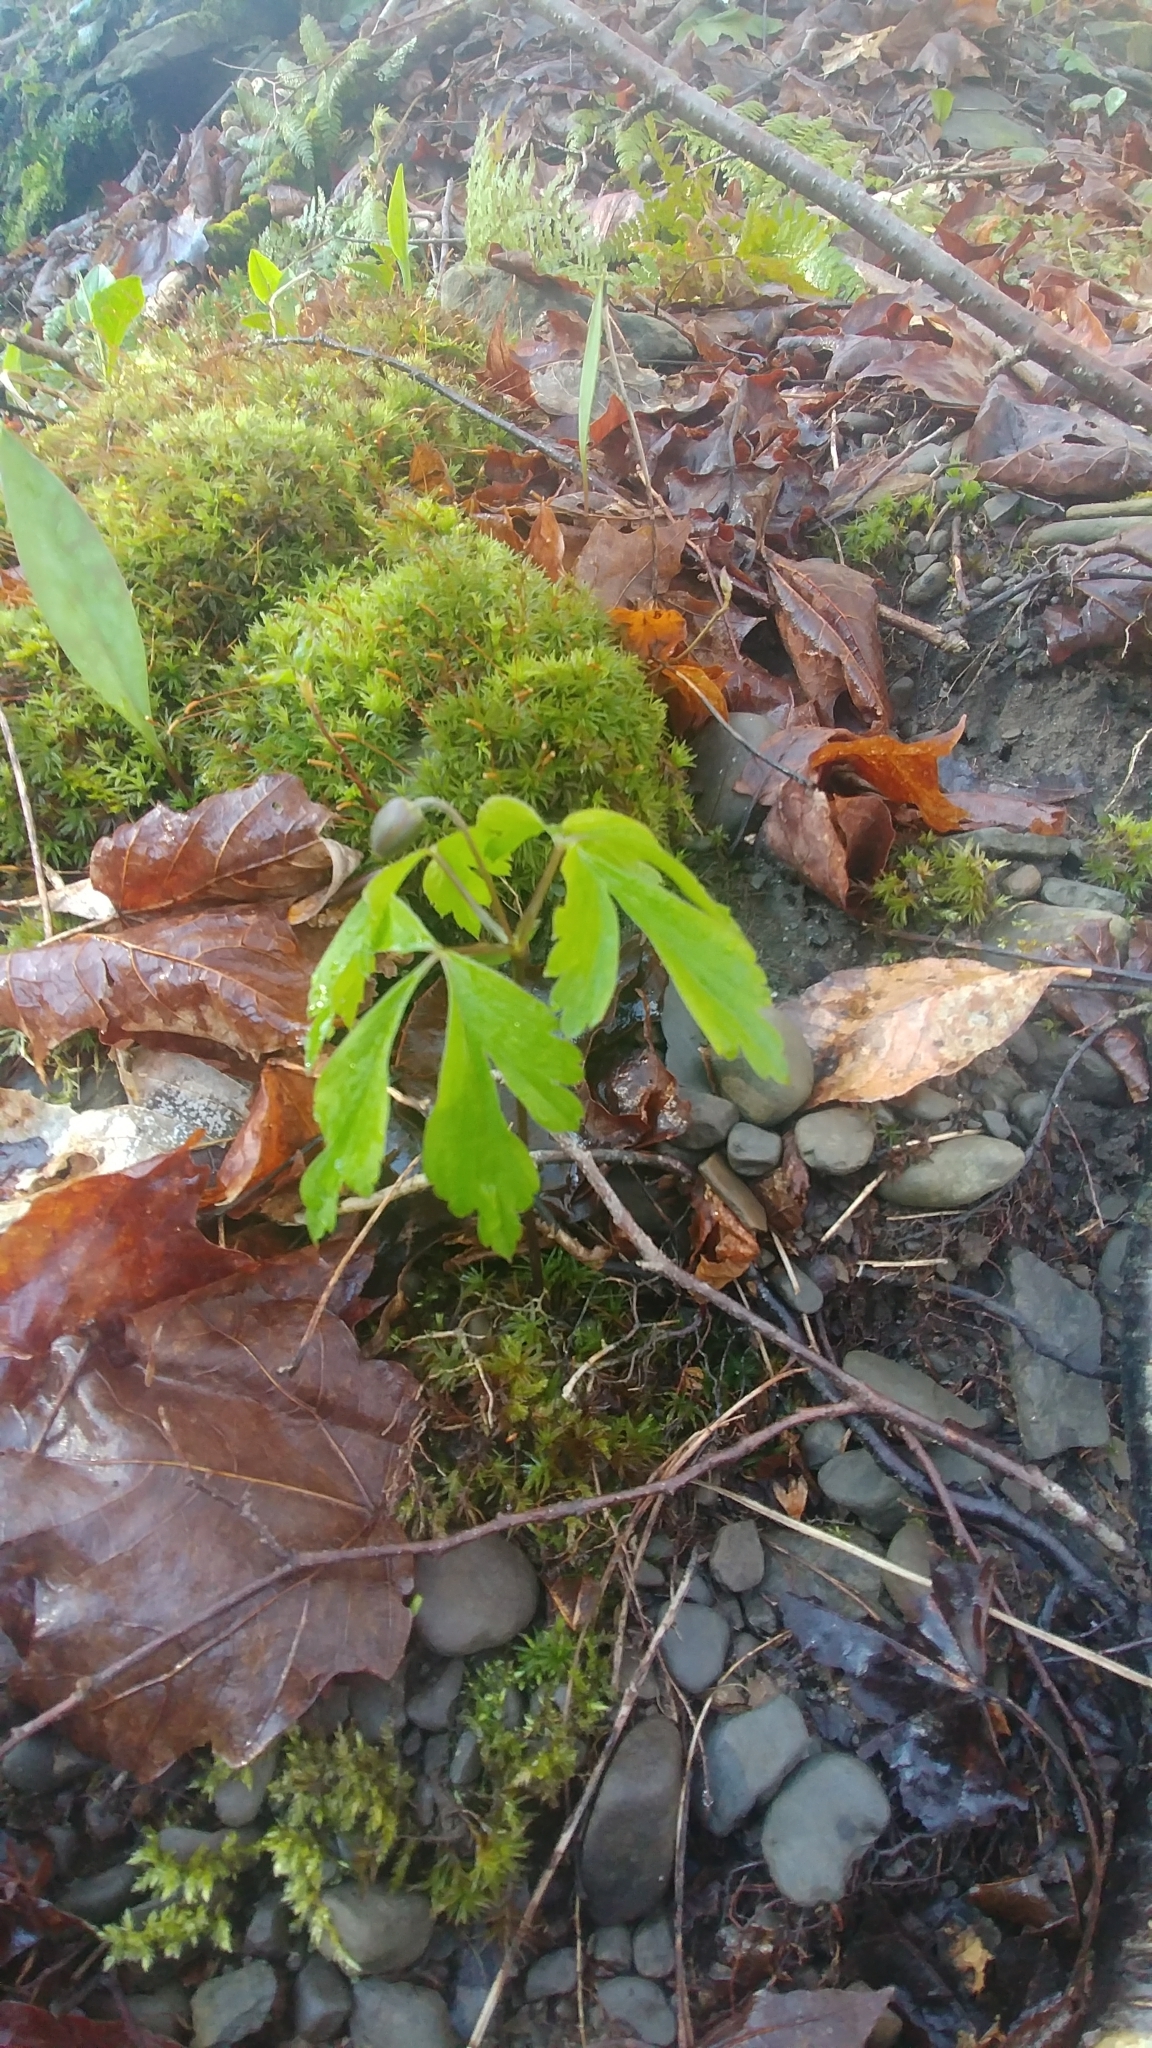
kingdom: Plantae
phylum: Tracheophyta
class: Magnoliopsida
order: Ranunculales
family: Ranunculaceae
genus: Anemone
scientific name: Anemone quinquefolia
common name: Wood anemone
